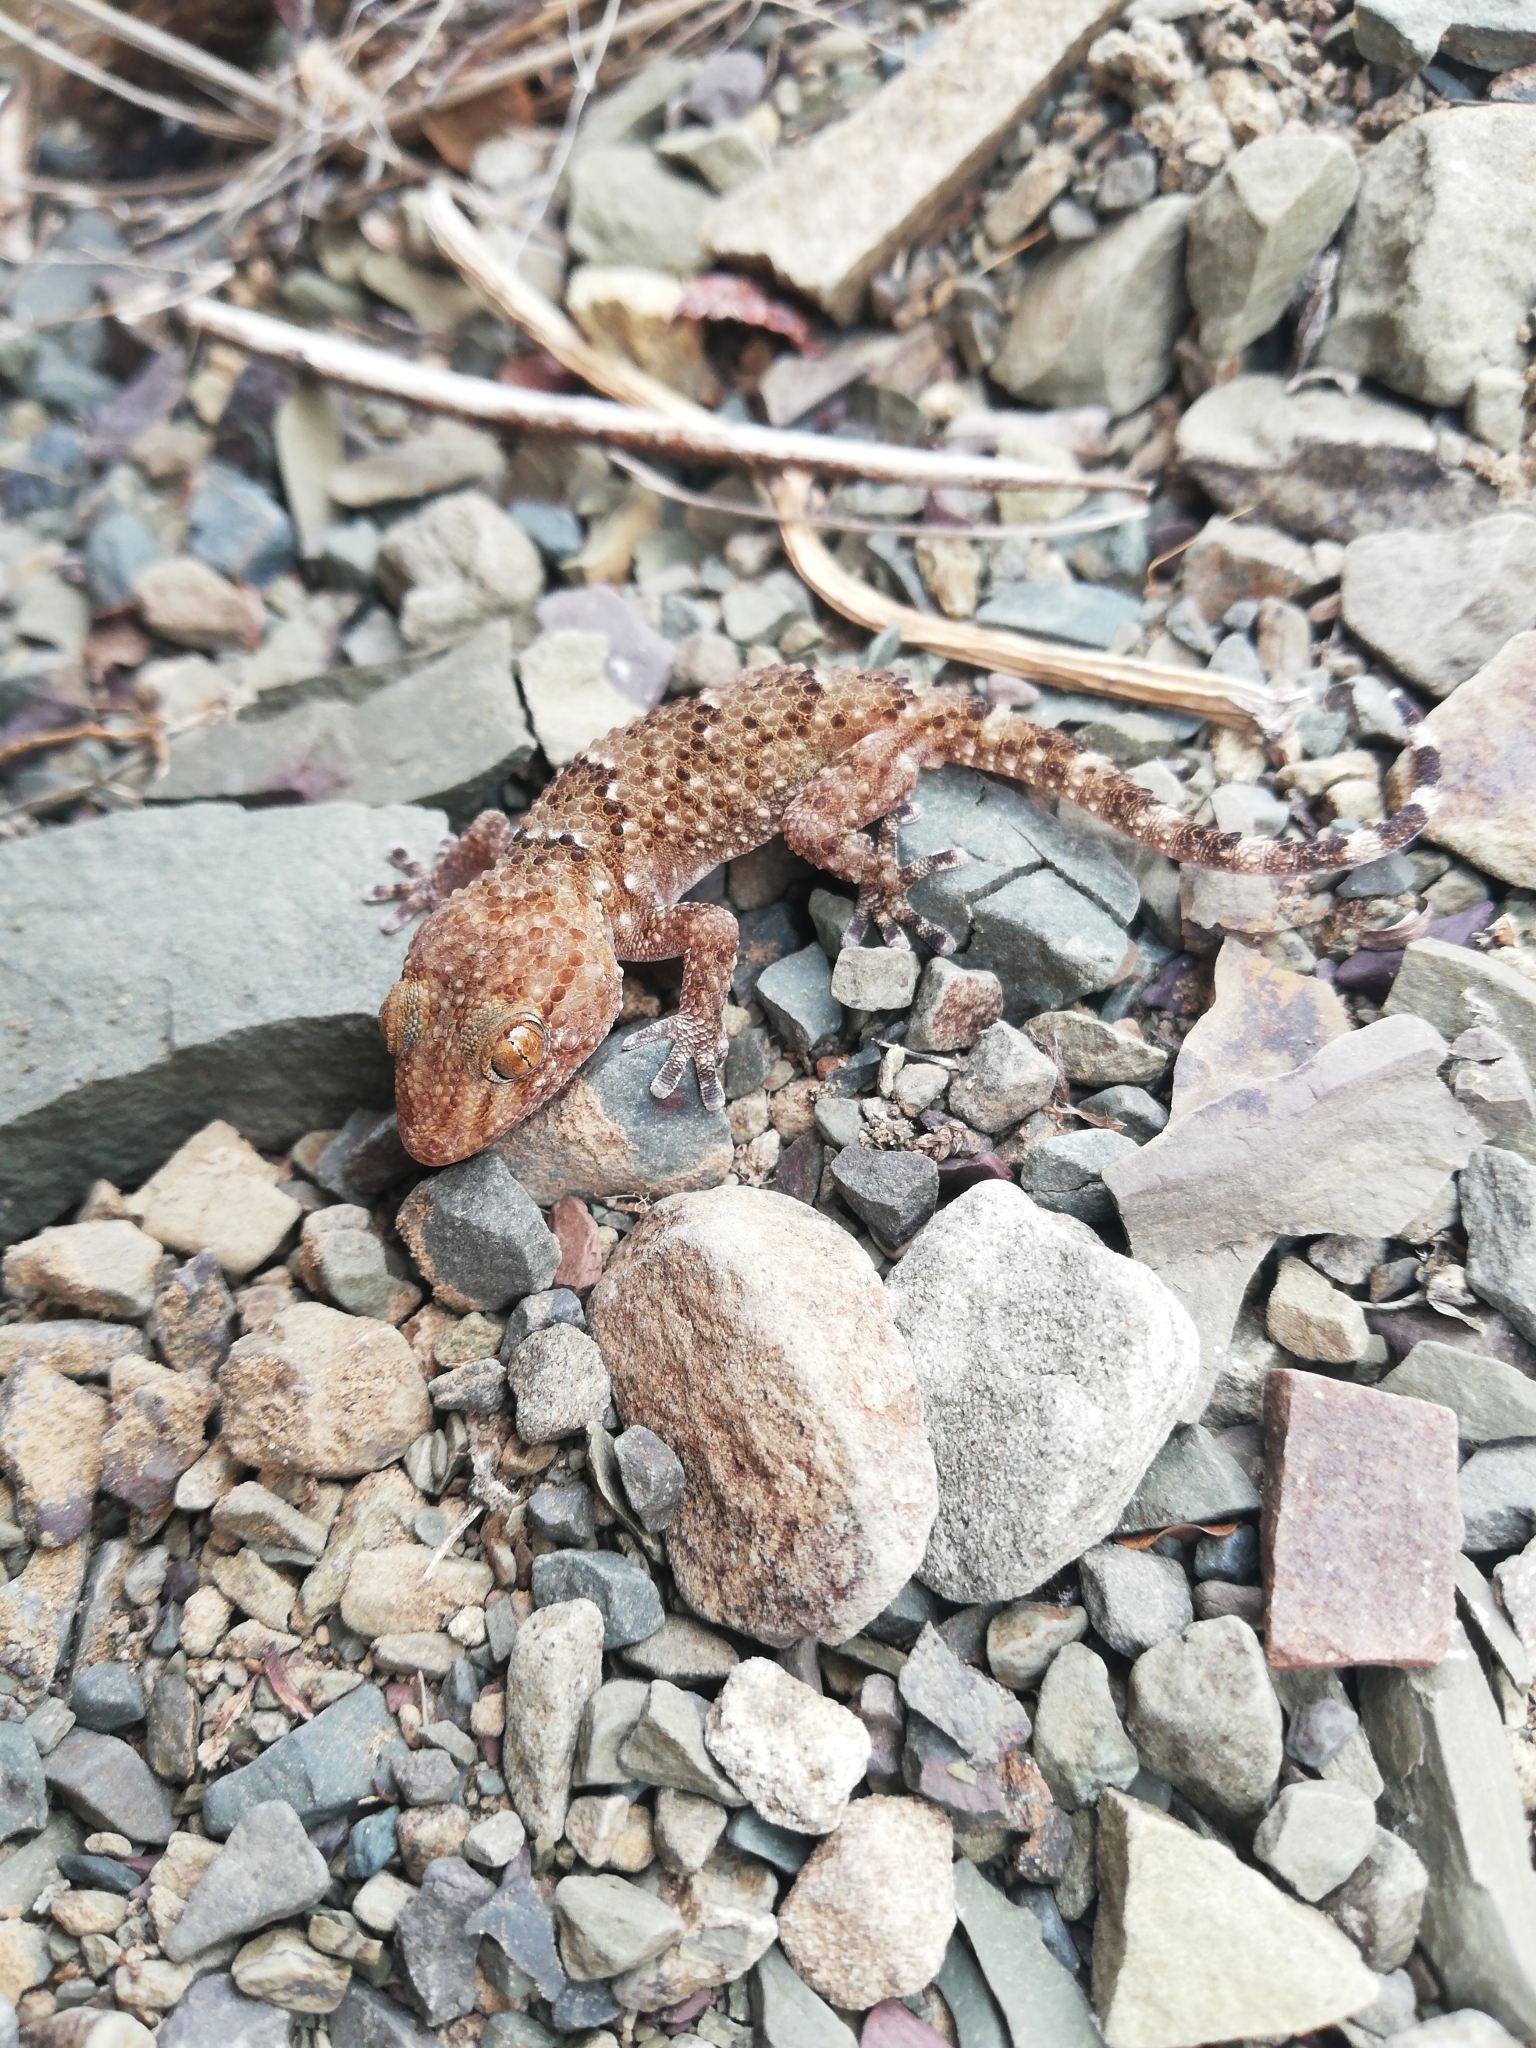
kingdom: Animalia
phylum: Chordata
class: Squamata
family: Gekkonidae
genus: Chondrodactylus
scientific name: Chondrodactylus bibronii
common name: Bibron's gecko
